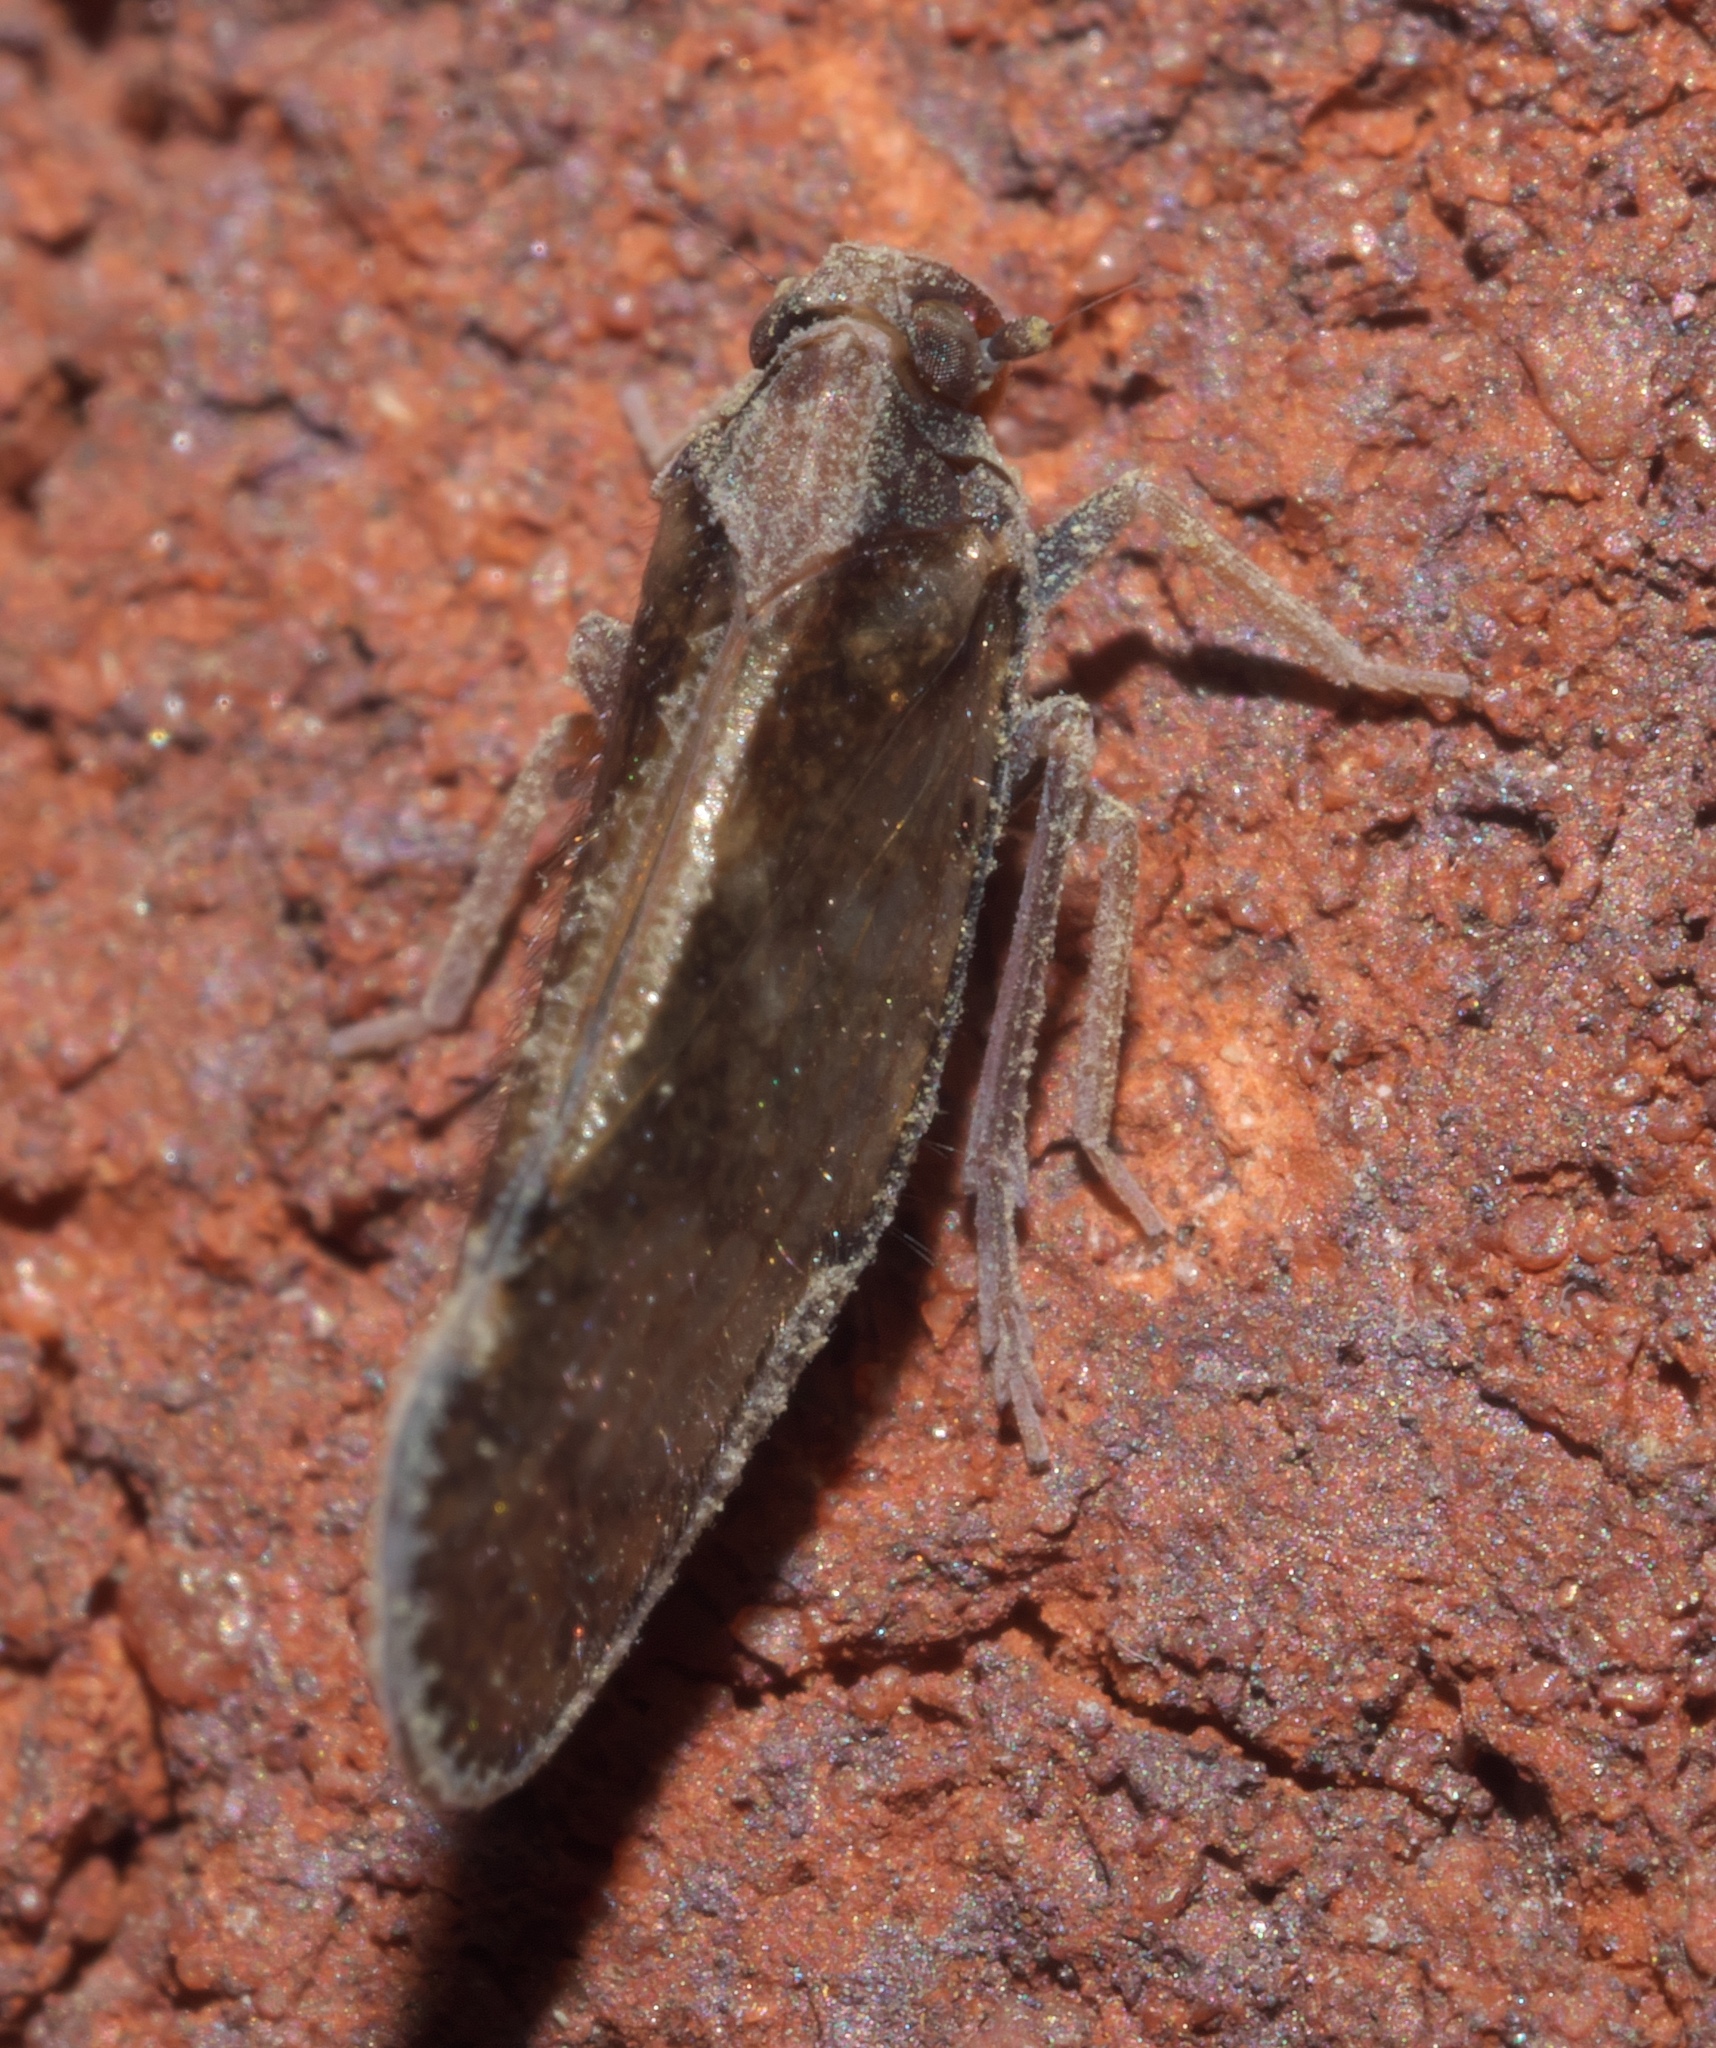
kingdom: Animalia
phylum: Arthropoda
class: Insecta
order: Hemiptera
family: Cixiidae
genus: Pintalia
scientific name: Pintalia vibex
